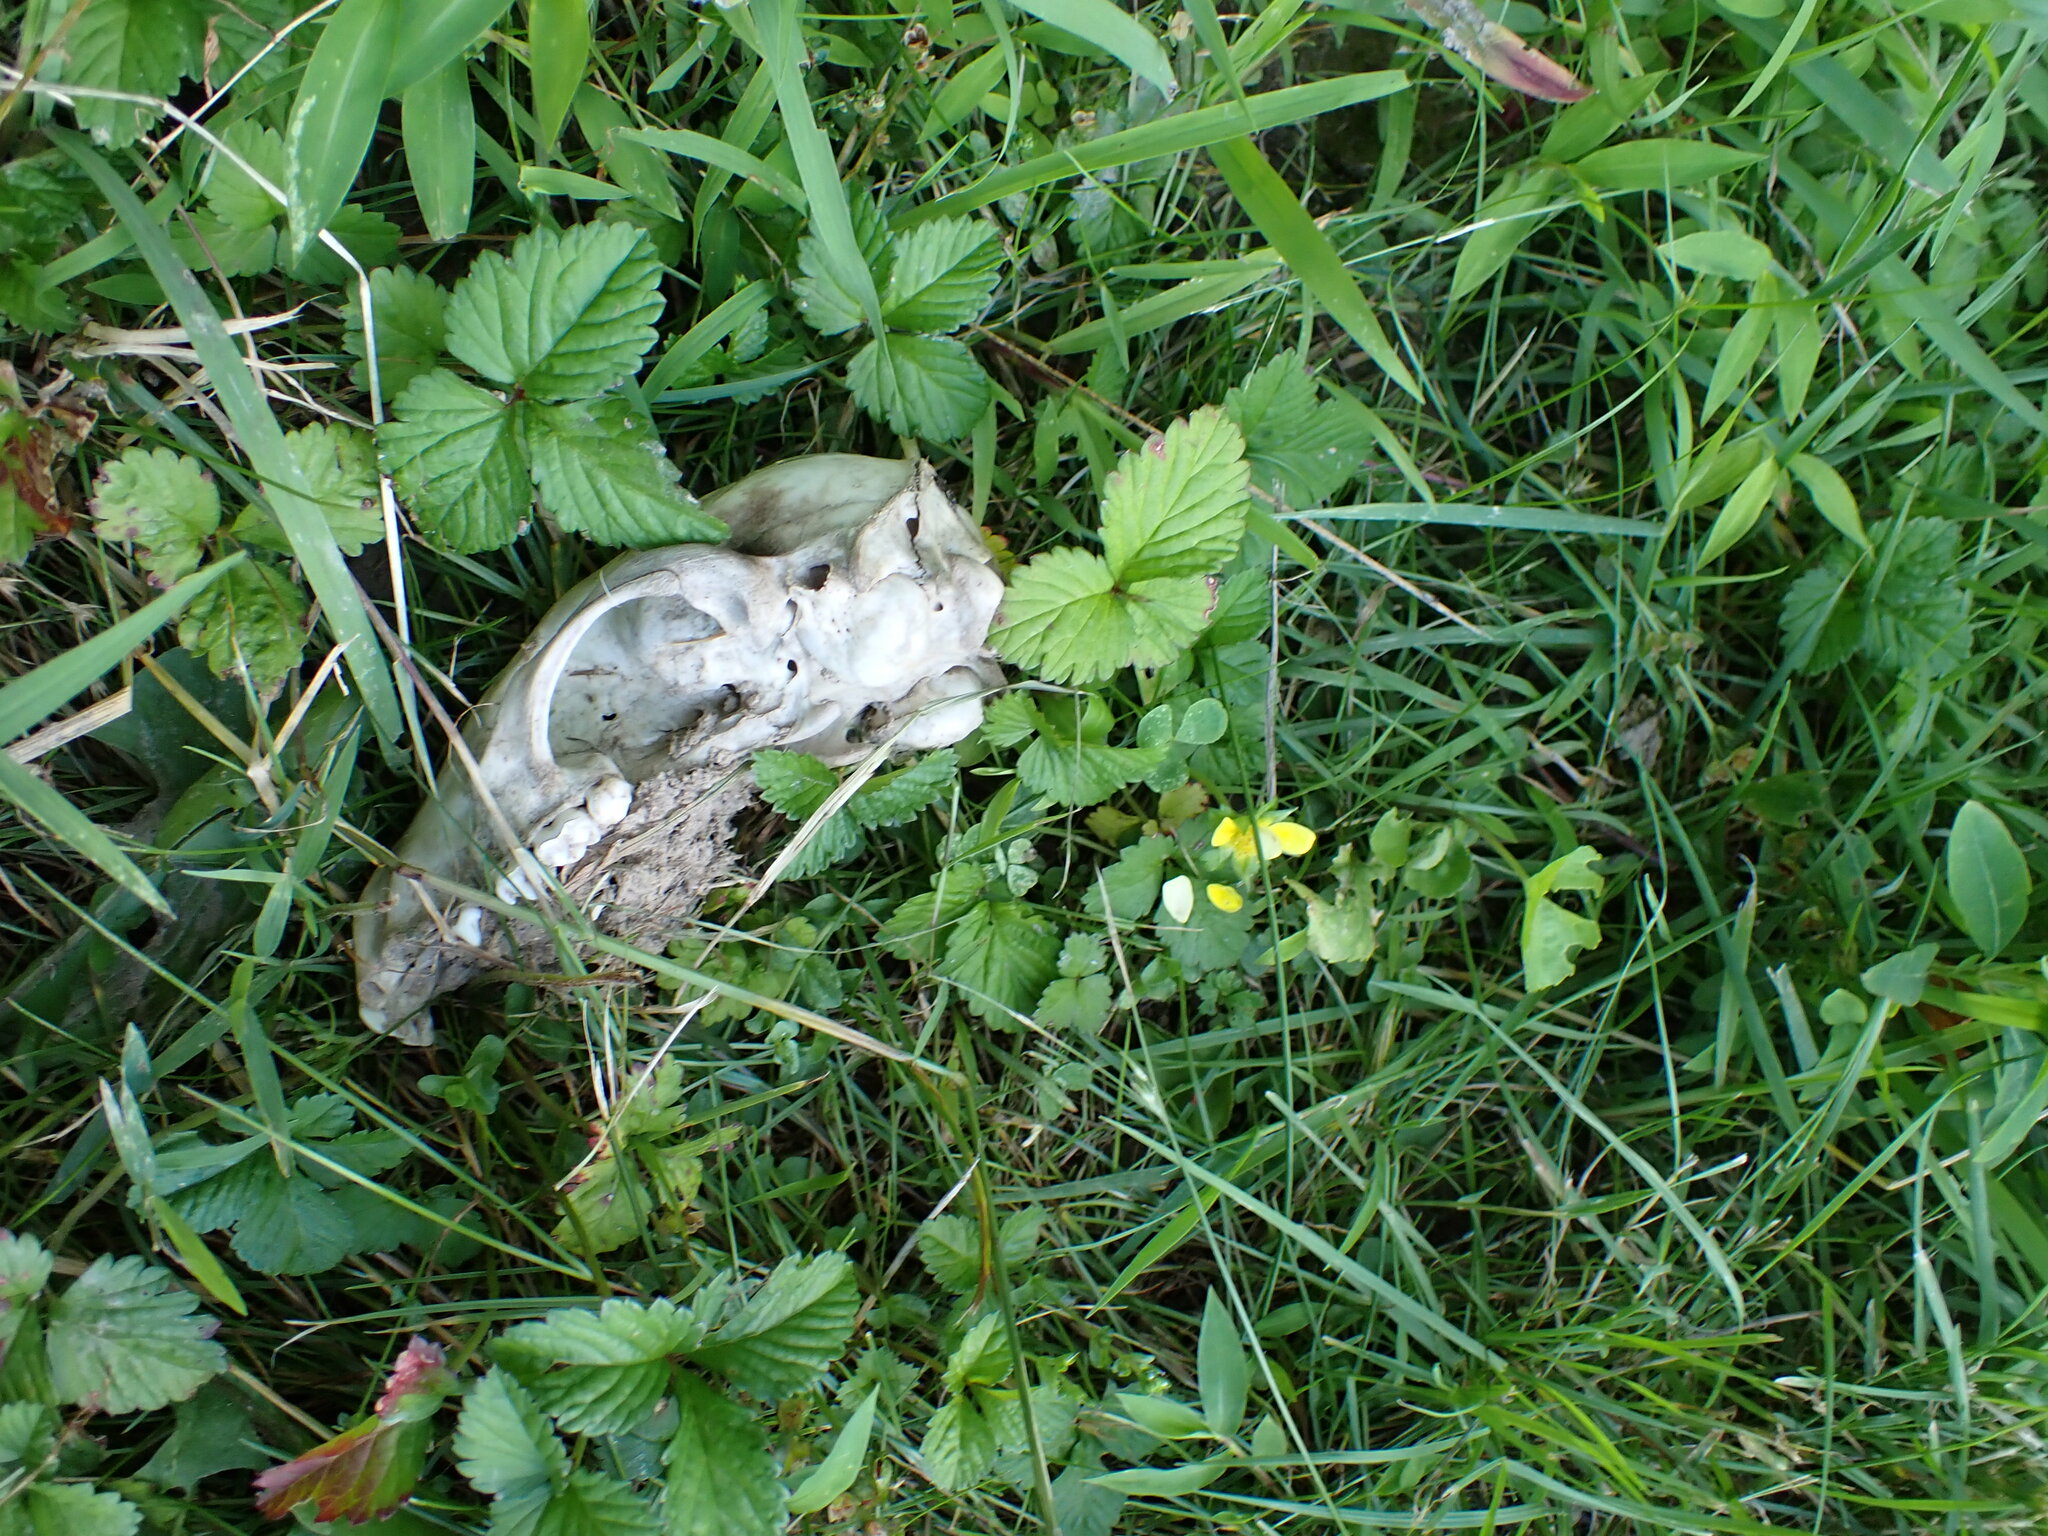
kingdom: Animalia
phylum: Chordata
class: Mammalia
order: Carnivora
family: Procyonidae
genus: Procyon
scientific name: Procyon lotor
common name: Raccoon
